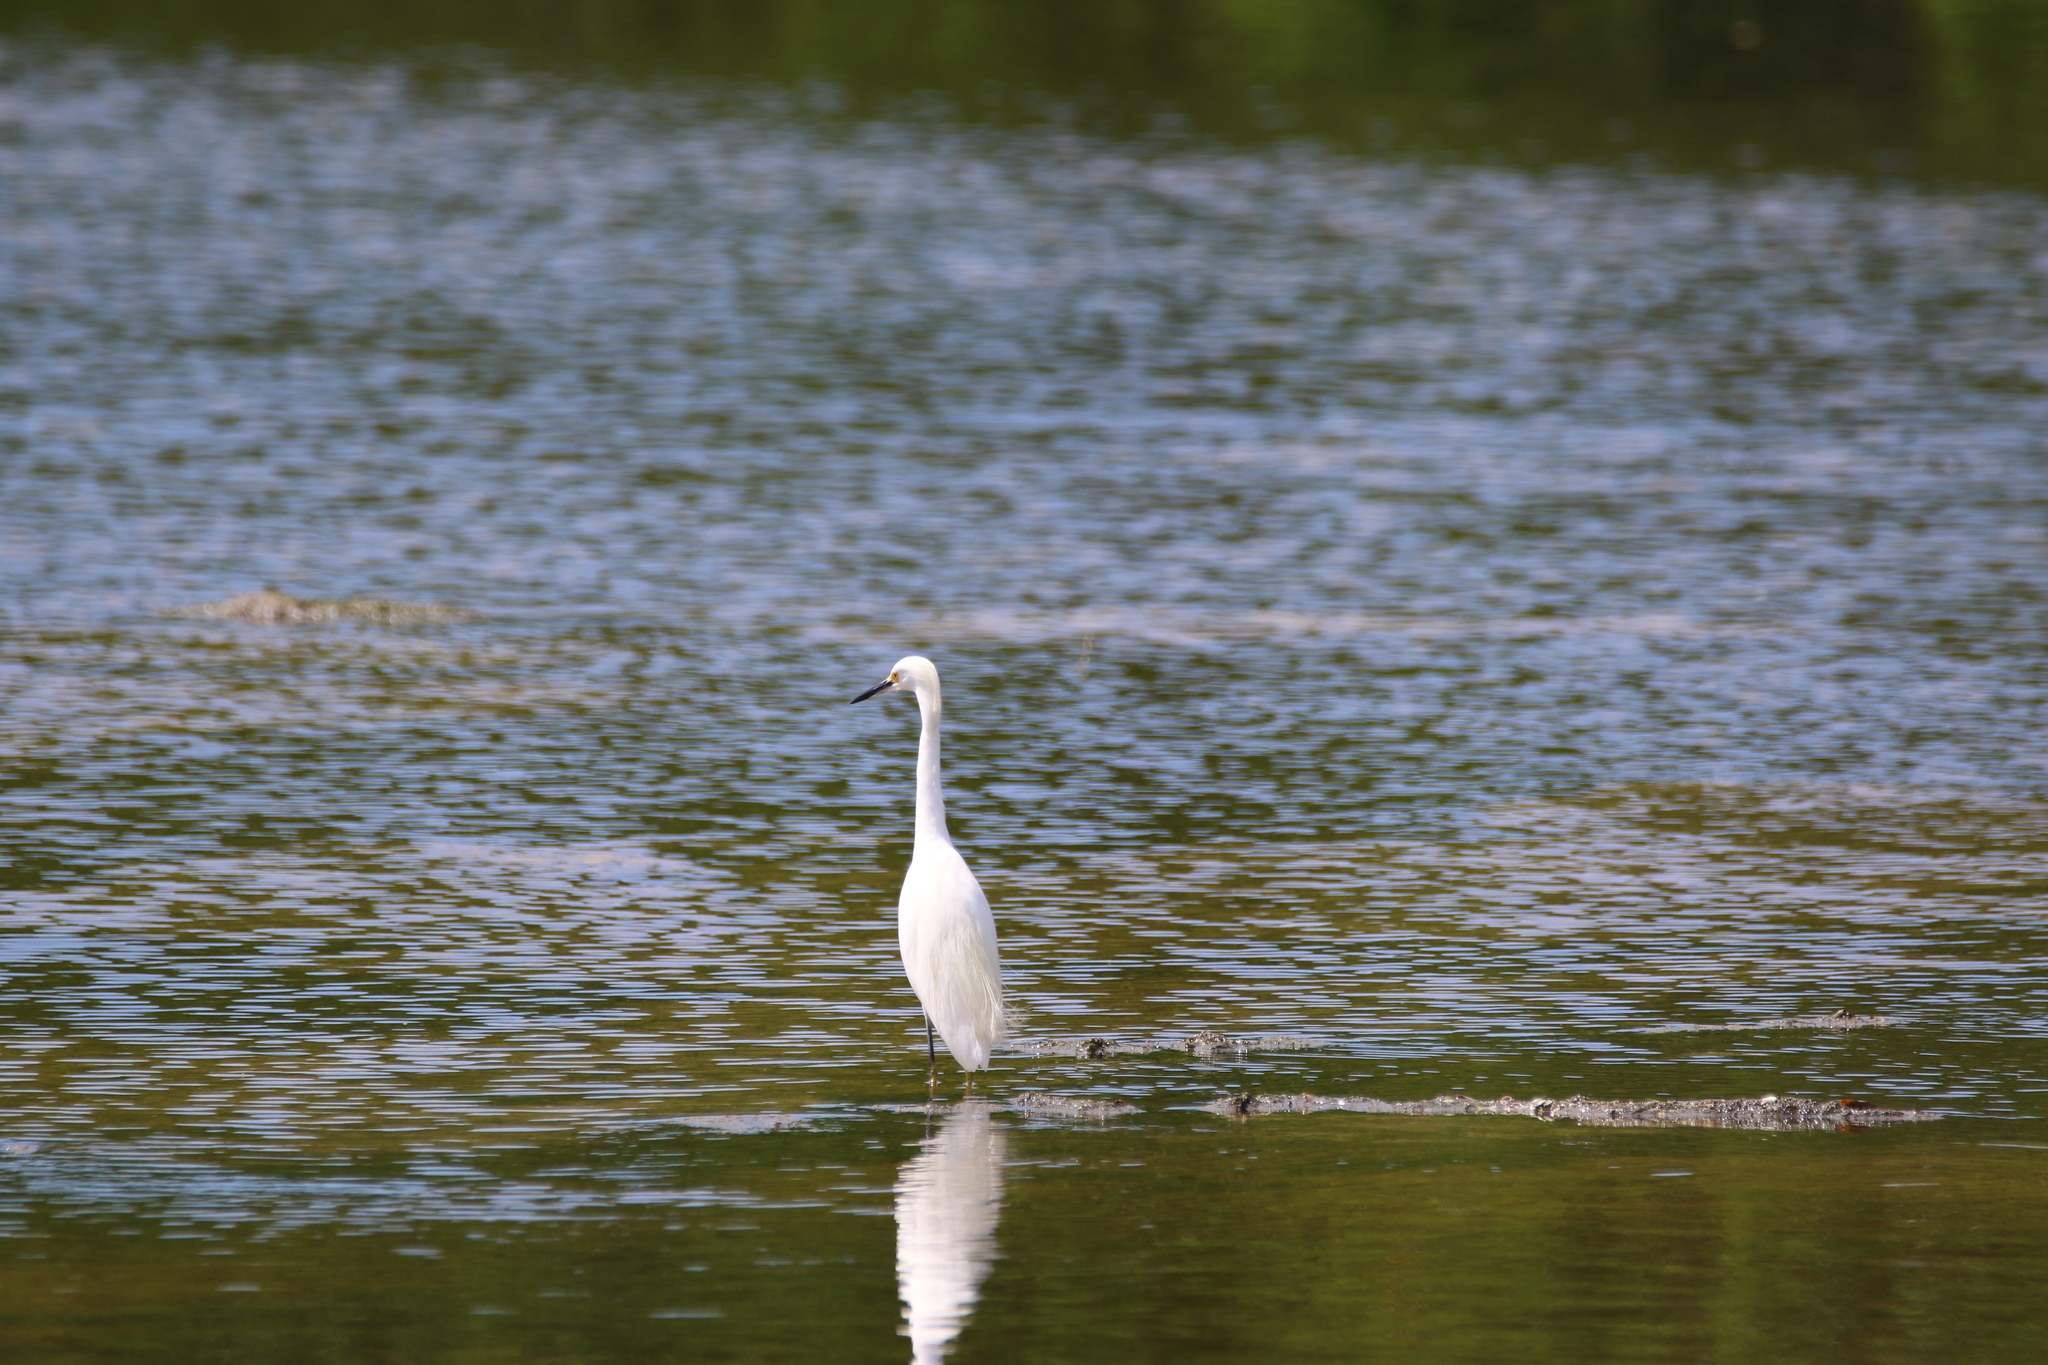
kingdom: Animalia
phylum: Chordata
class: Aves
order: Pelecaniformes
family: Ardeidae
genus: Egretta
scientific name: Egretta thula
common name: Snowy egret
